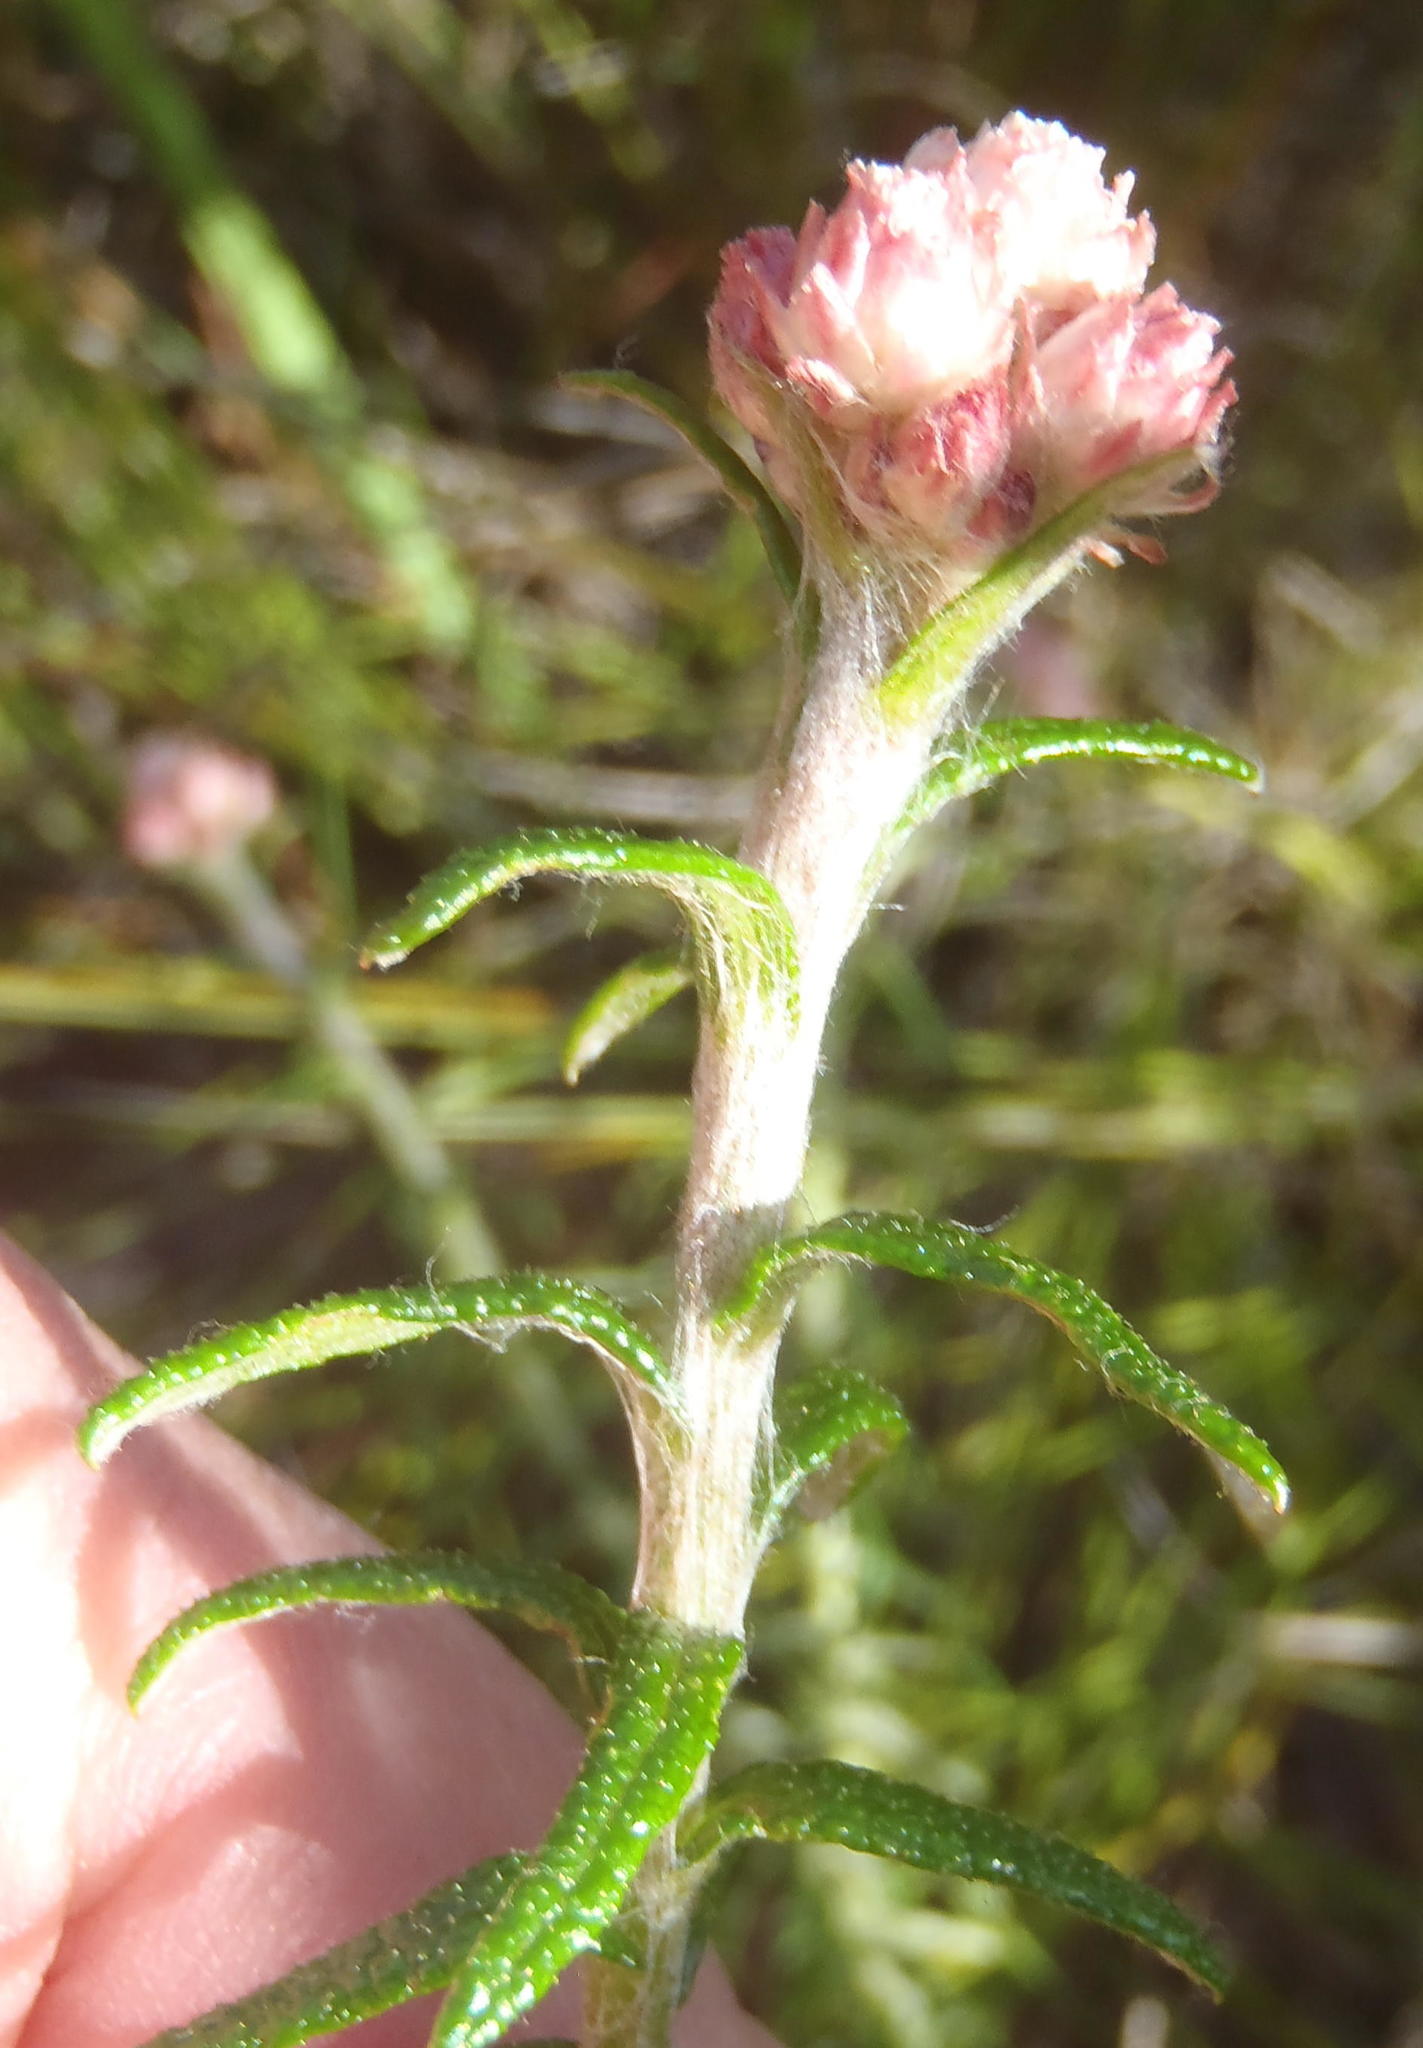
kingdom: Plantae
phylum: Tracheophyta
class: Magnoliopsida
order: Asterales
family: Asteraceae
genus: Helichrysum
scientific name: Helichrysum felinum
